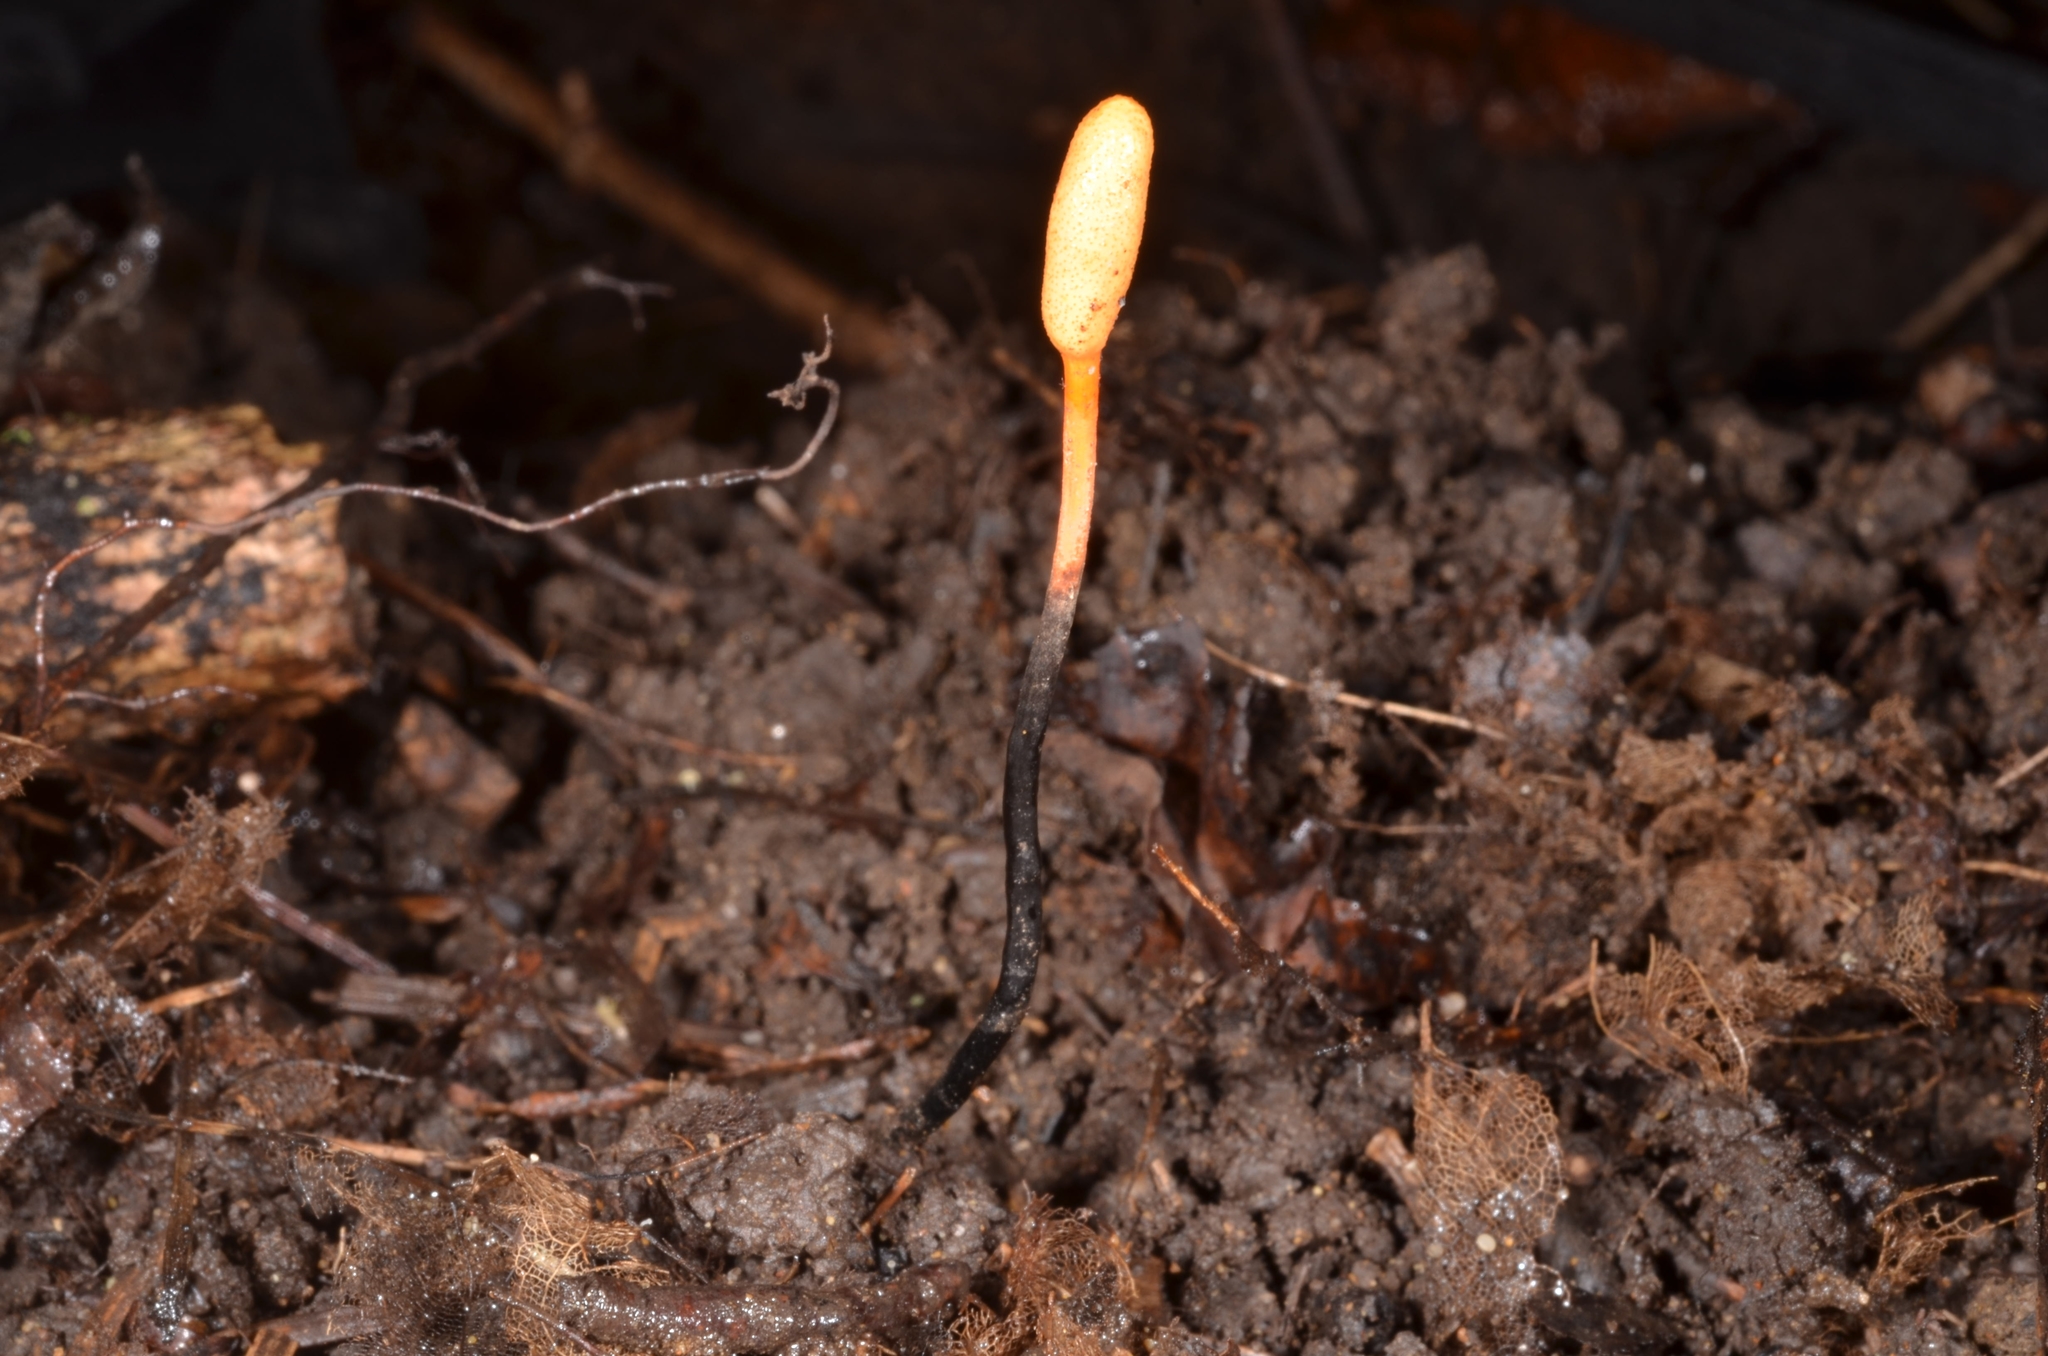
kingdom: Fungi
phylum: Ascomycota
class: Sordariomycetes
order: Hypocreales
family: Ophiocordycipitaceae
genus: Ophiocordyceps
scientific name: Ophiocordyceps nutans
